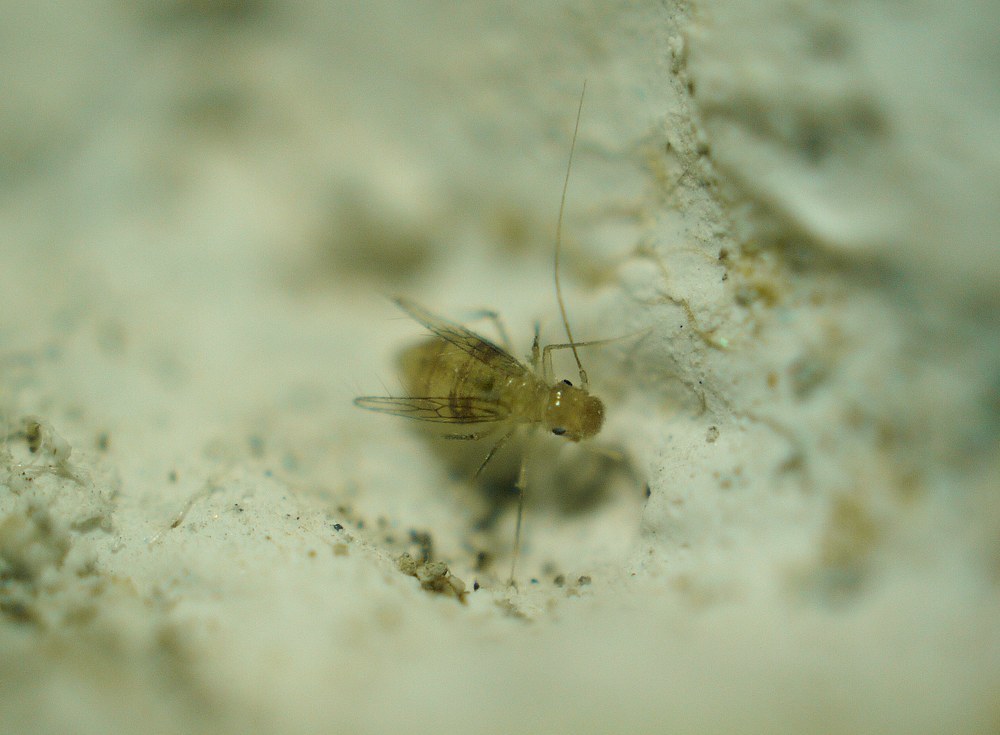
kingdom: Animalia
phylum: Arthropoda
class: Insecta
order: Psocodea
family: Psyllipsocidae
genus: Dorypteryx
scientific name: Dorypteryx domestica
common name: Cave barklouse
